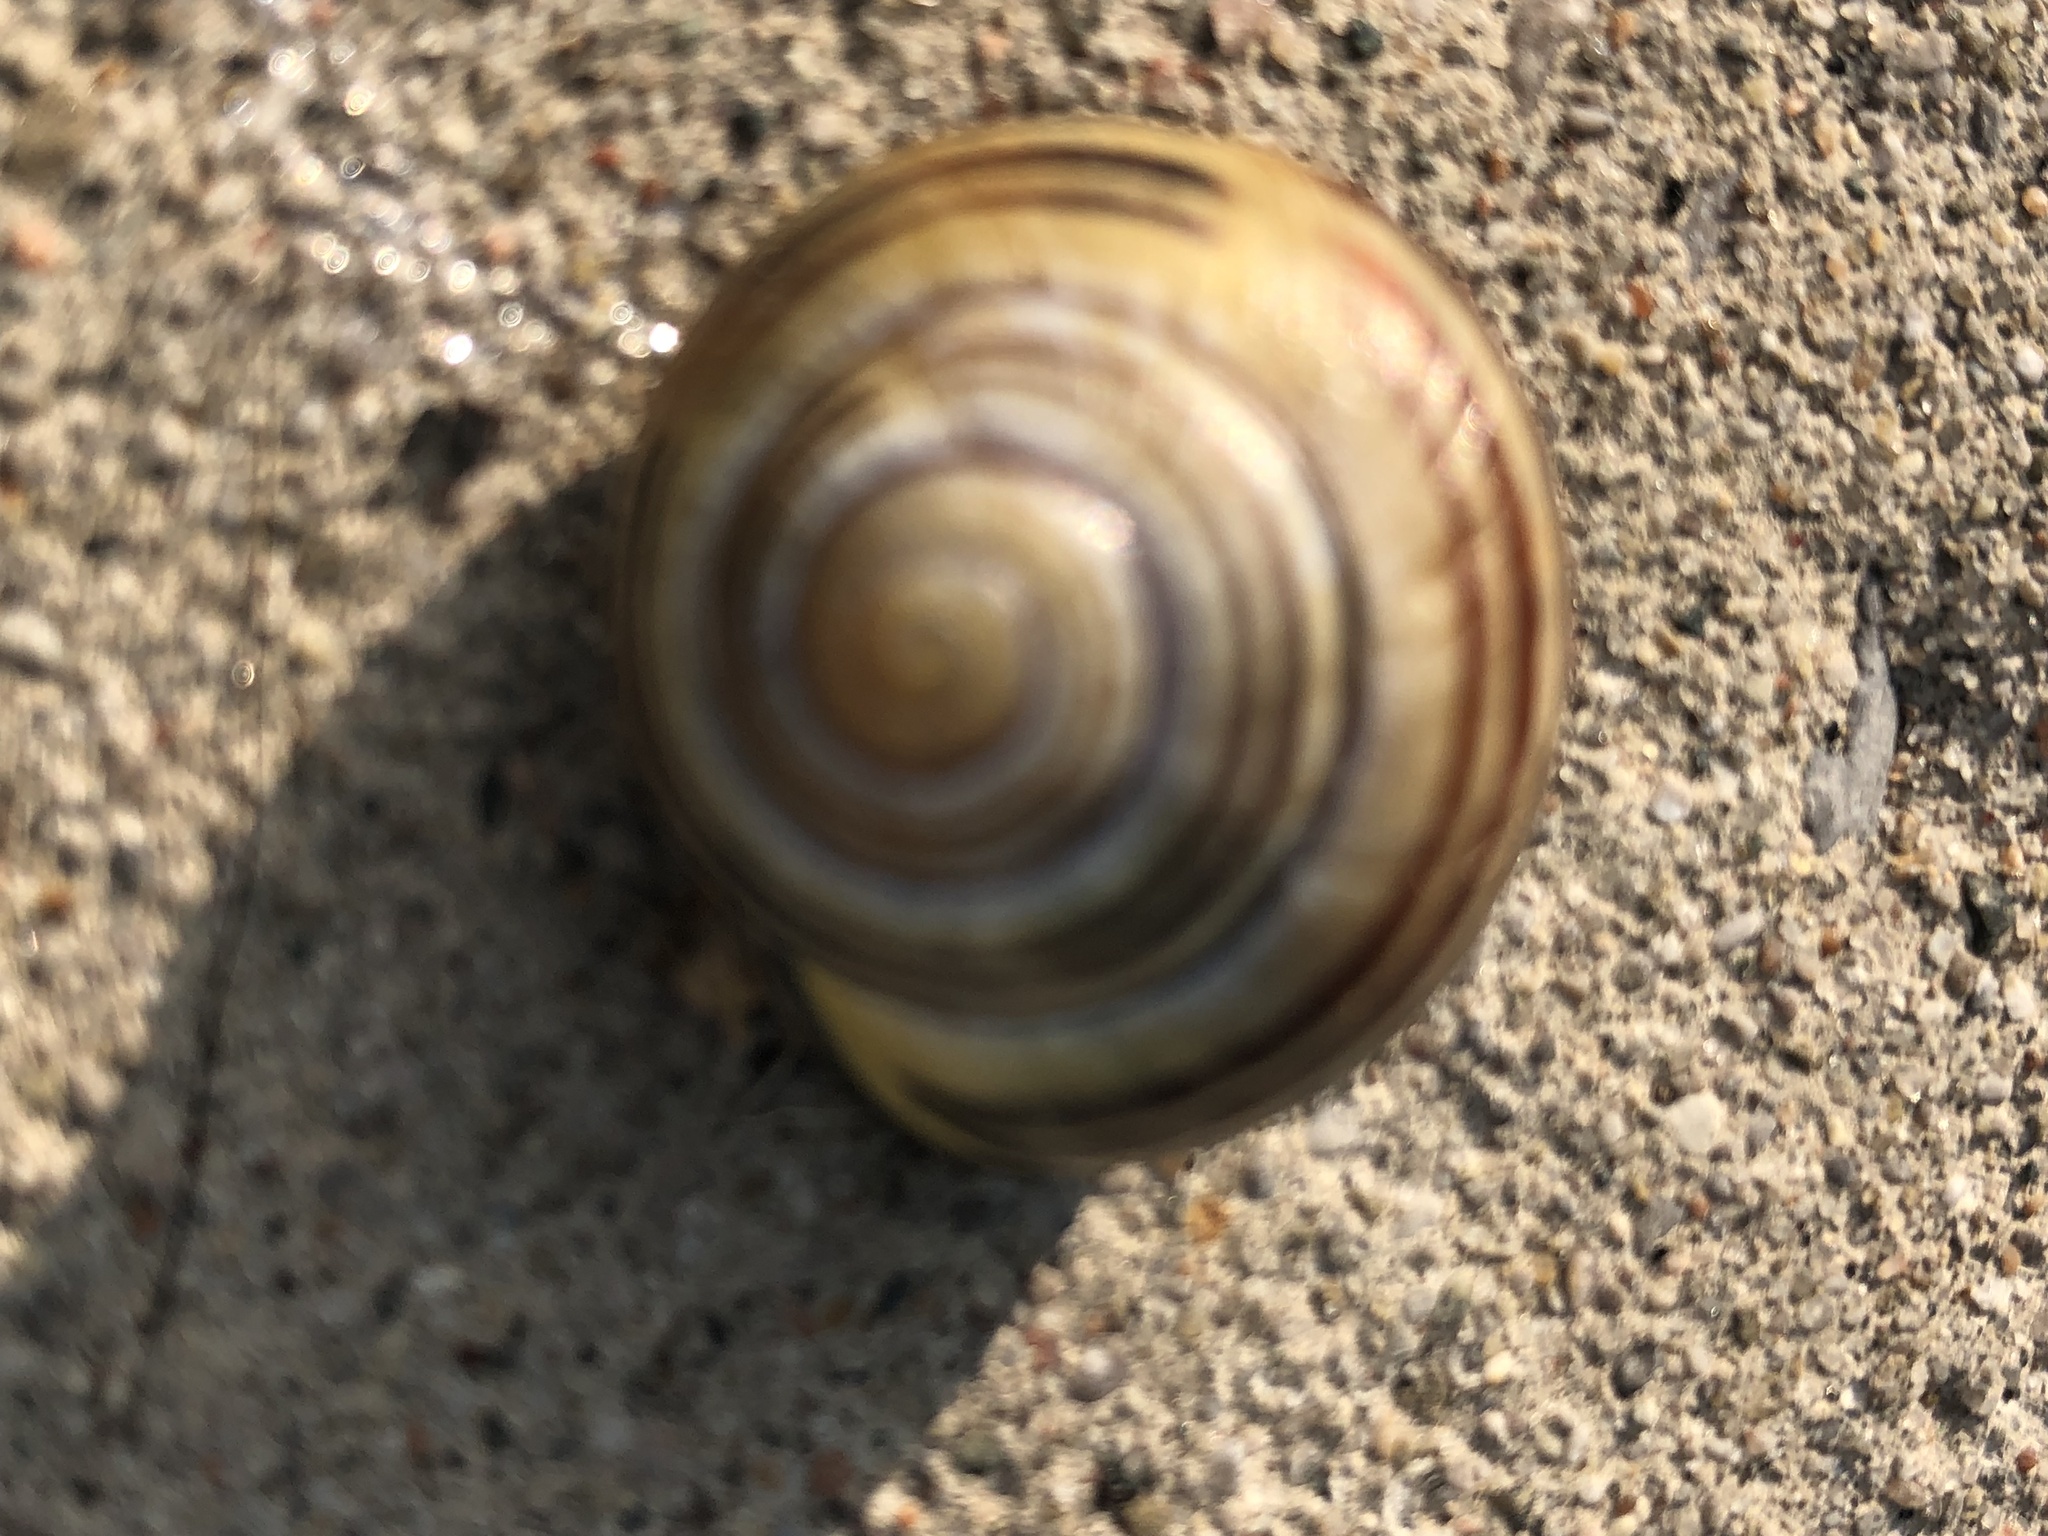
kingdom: Animalia
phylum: Mollusca
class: Gastropoda
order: Stylommatophora
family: Helicidae
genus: Cepaea
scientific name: Cepaea nemoralis
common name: Grovesnail
